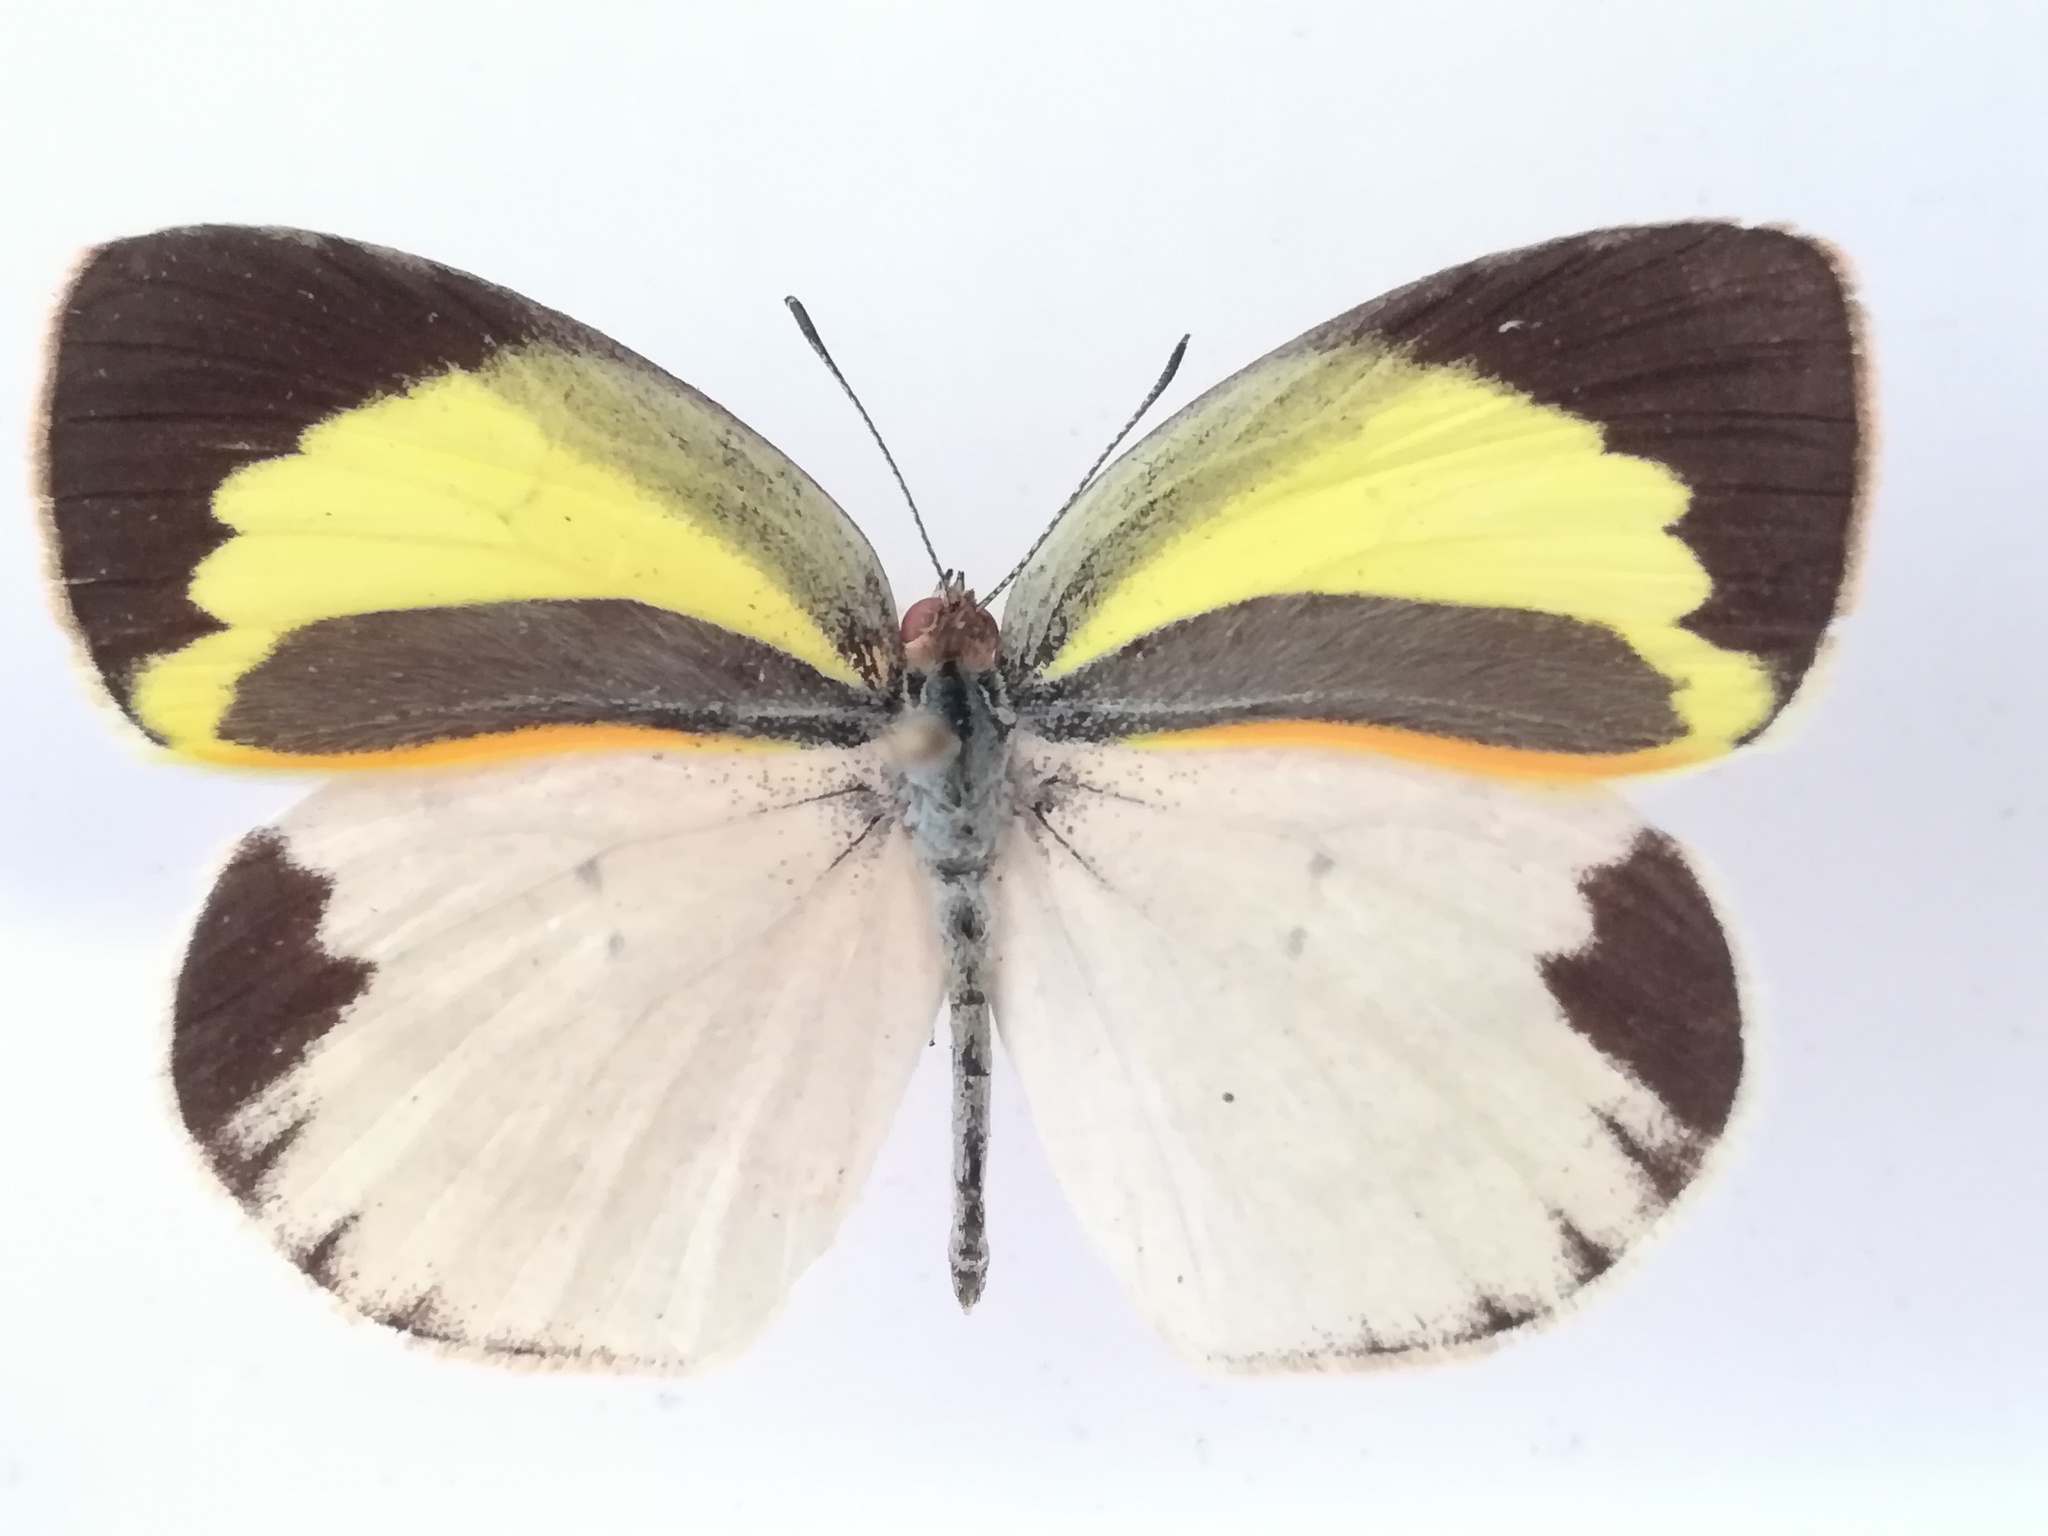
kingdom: Animalia
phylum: Arthropoda
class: Insecta
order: Lepidoptera
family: Pieridae
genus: Eurema
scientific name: Eurema daira
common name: Barred sulphur
